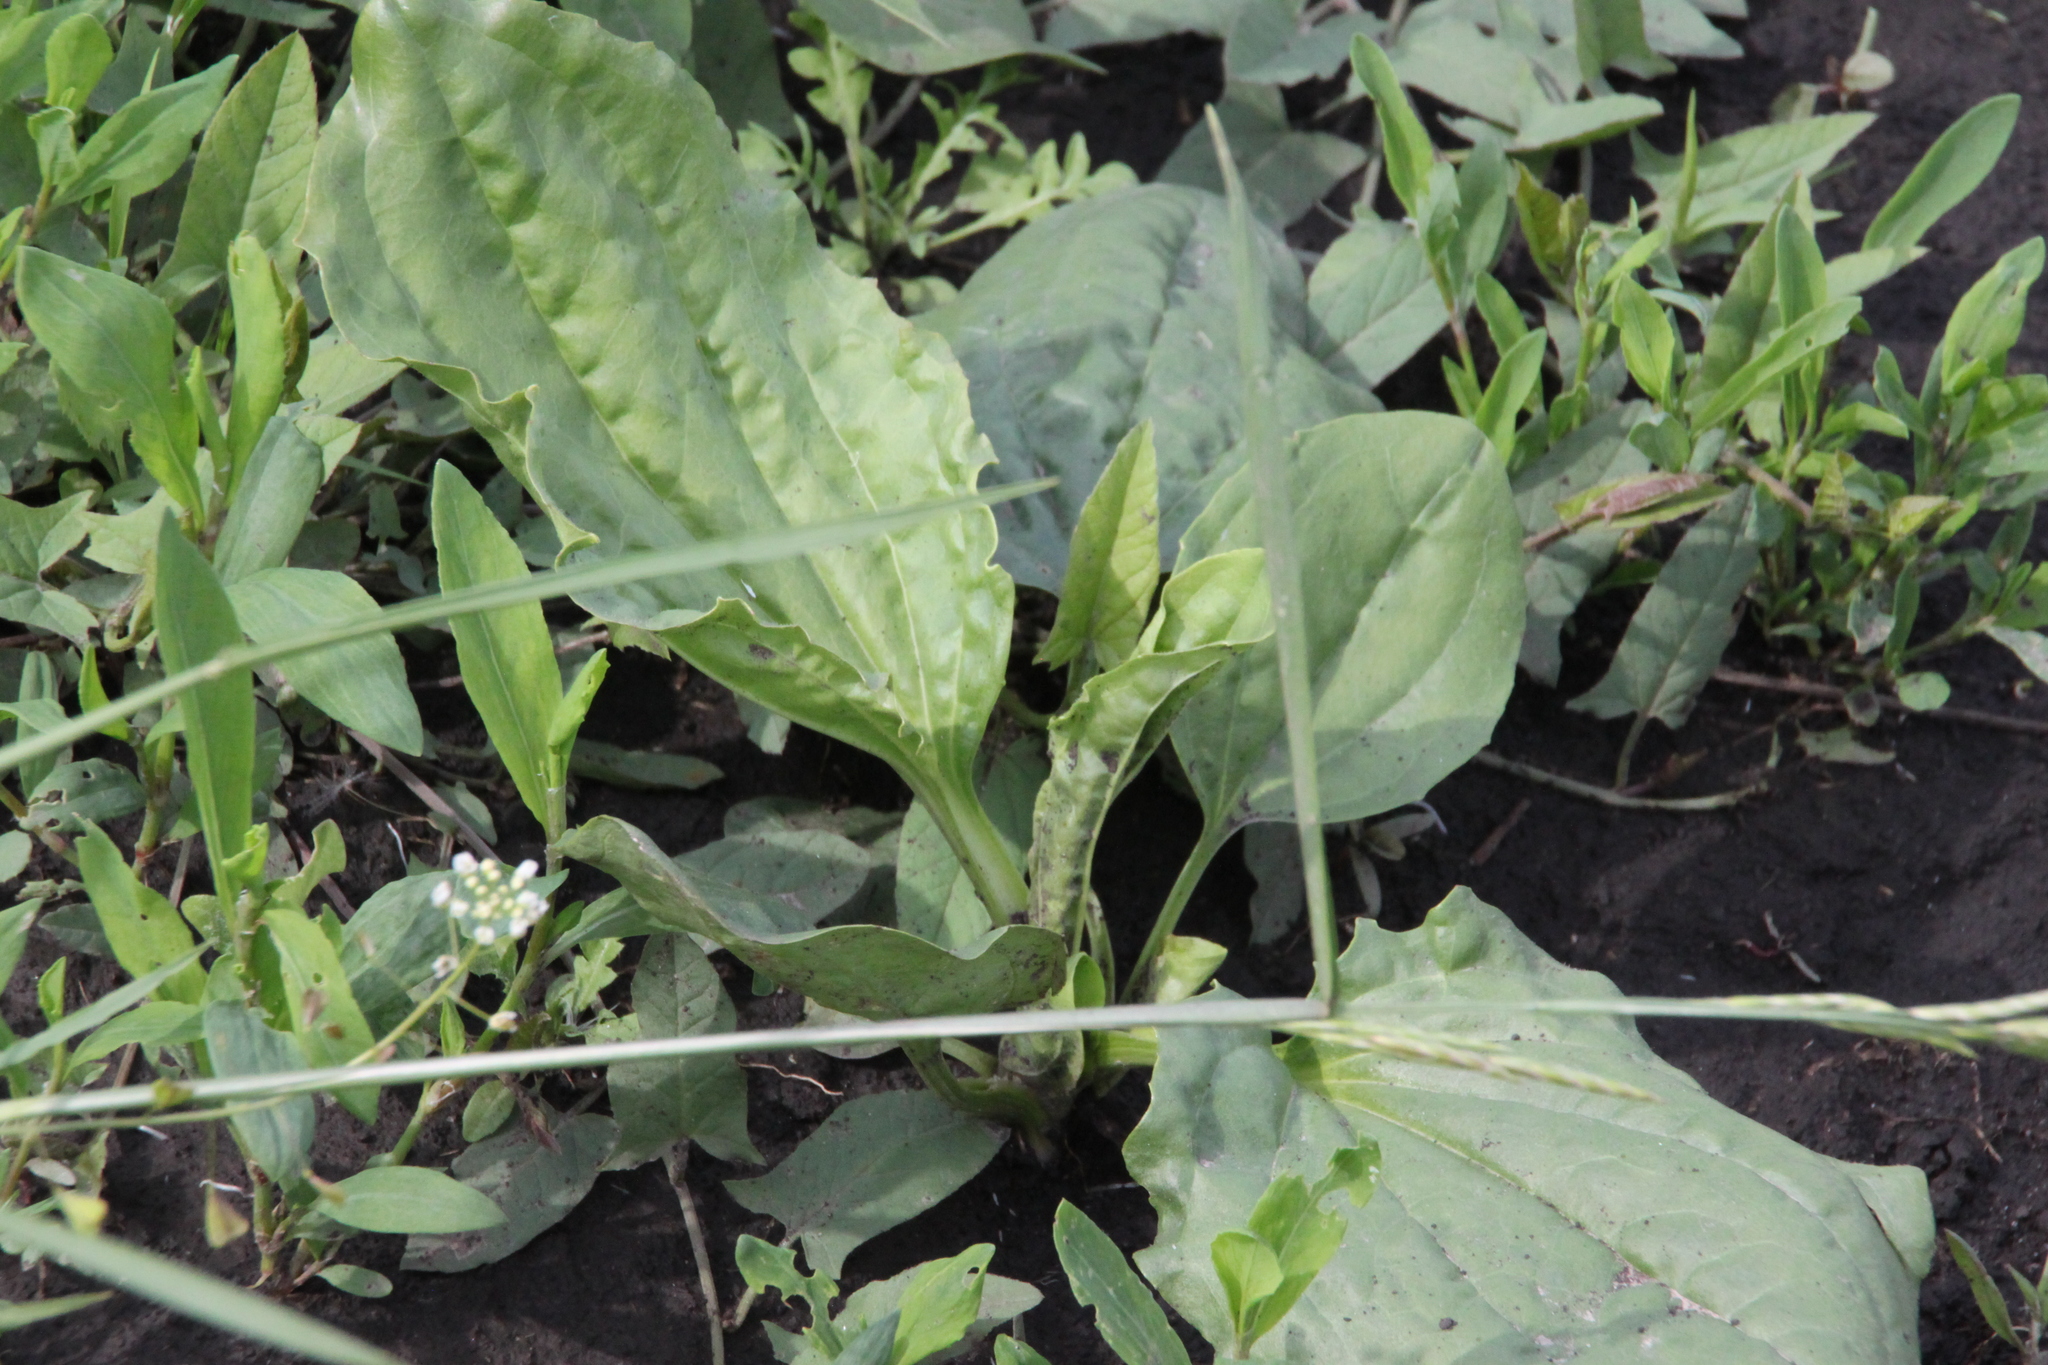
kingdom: Plantae
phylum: Tracheophyta
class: Magnoliopsida
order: Lamiales
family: Plantaginaceae
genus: Plantago
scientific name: Plantago major
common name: Common plantain
